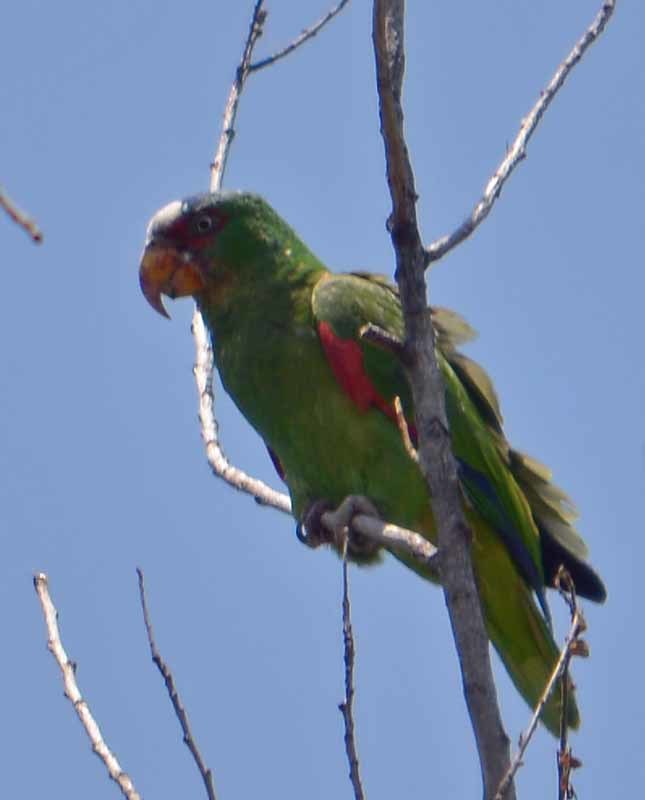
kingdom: Animalia
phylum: Chordata
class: Aves
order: Psittaciformes
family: Psittacidae
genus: Amazona
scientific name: Amazona albifrons
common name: White-fronted amazon
